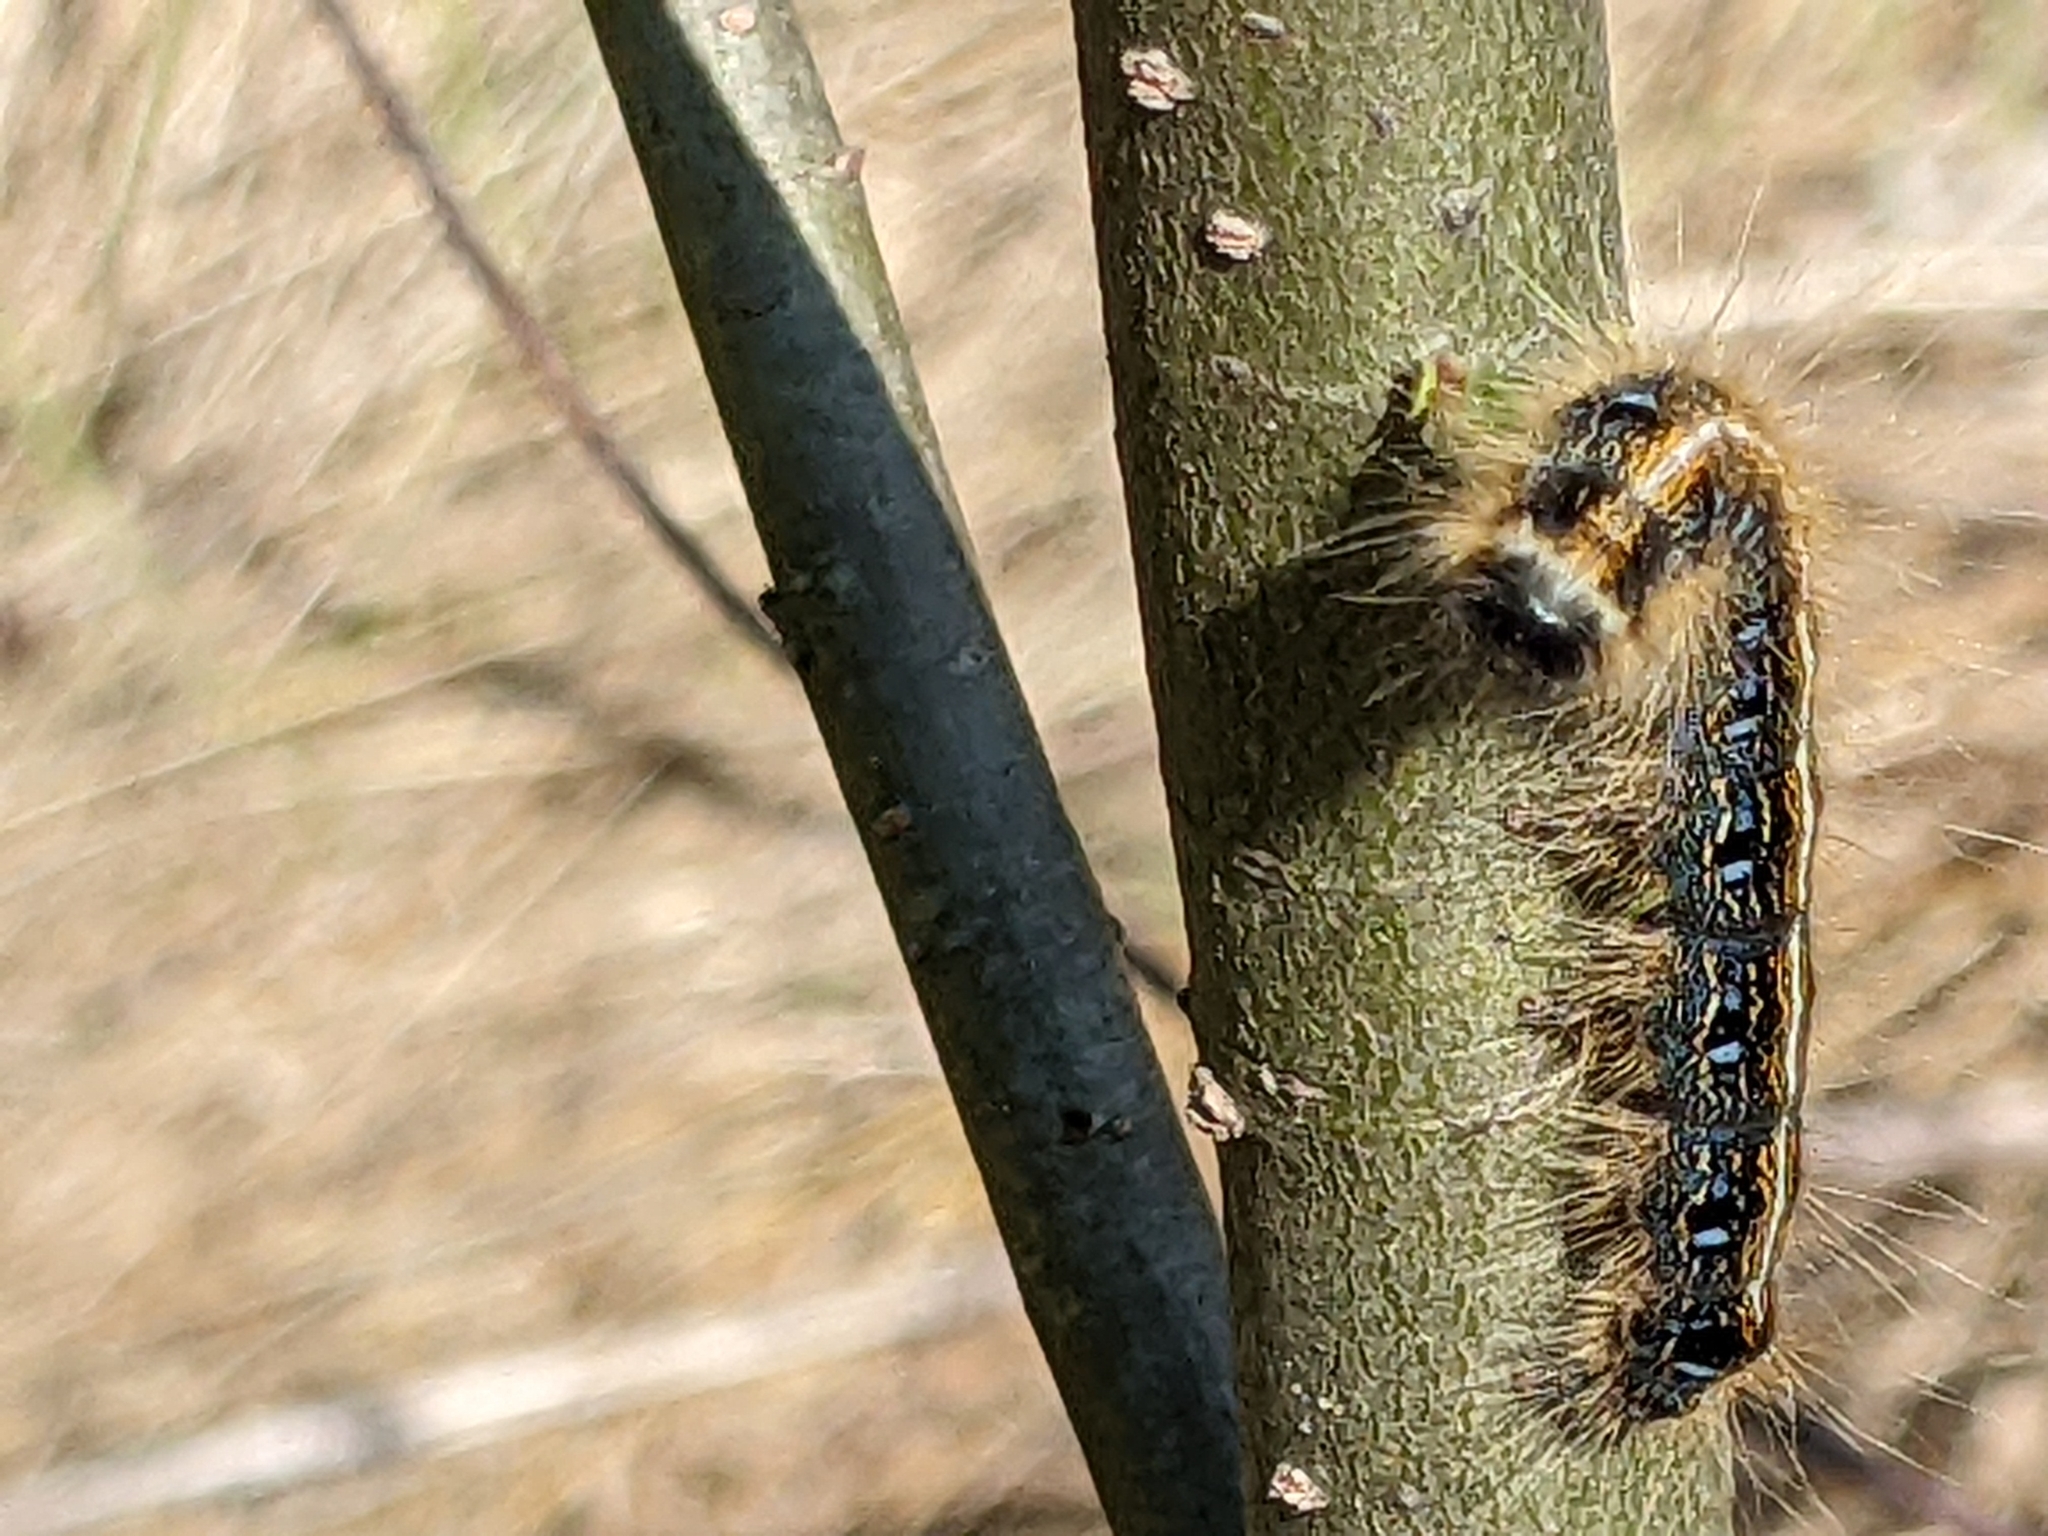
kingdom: Animalia
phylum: Arthropoda
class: Insecta
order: Lepidoptera
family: Lasiocampidae
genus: Malacosoma
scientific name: Malacosoma americana
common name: Eastern tent caterpillar moth
